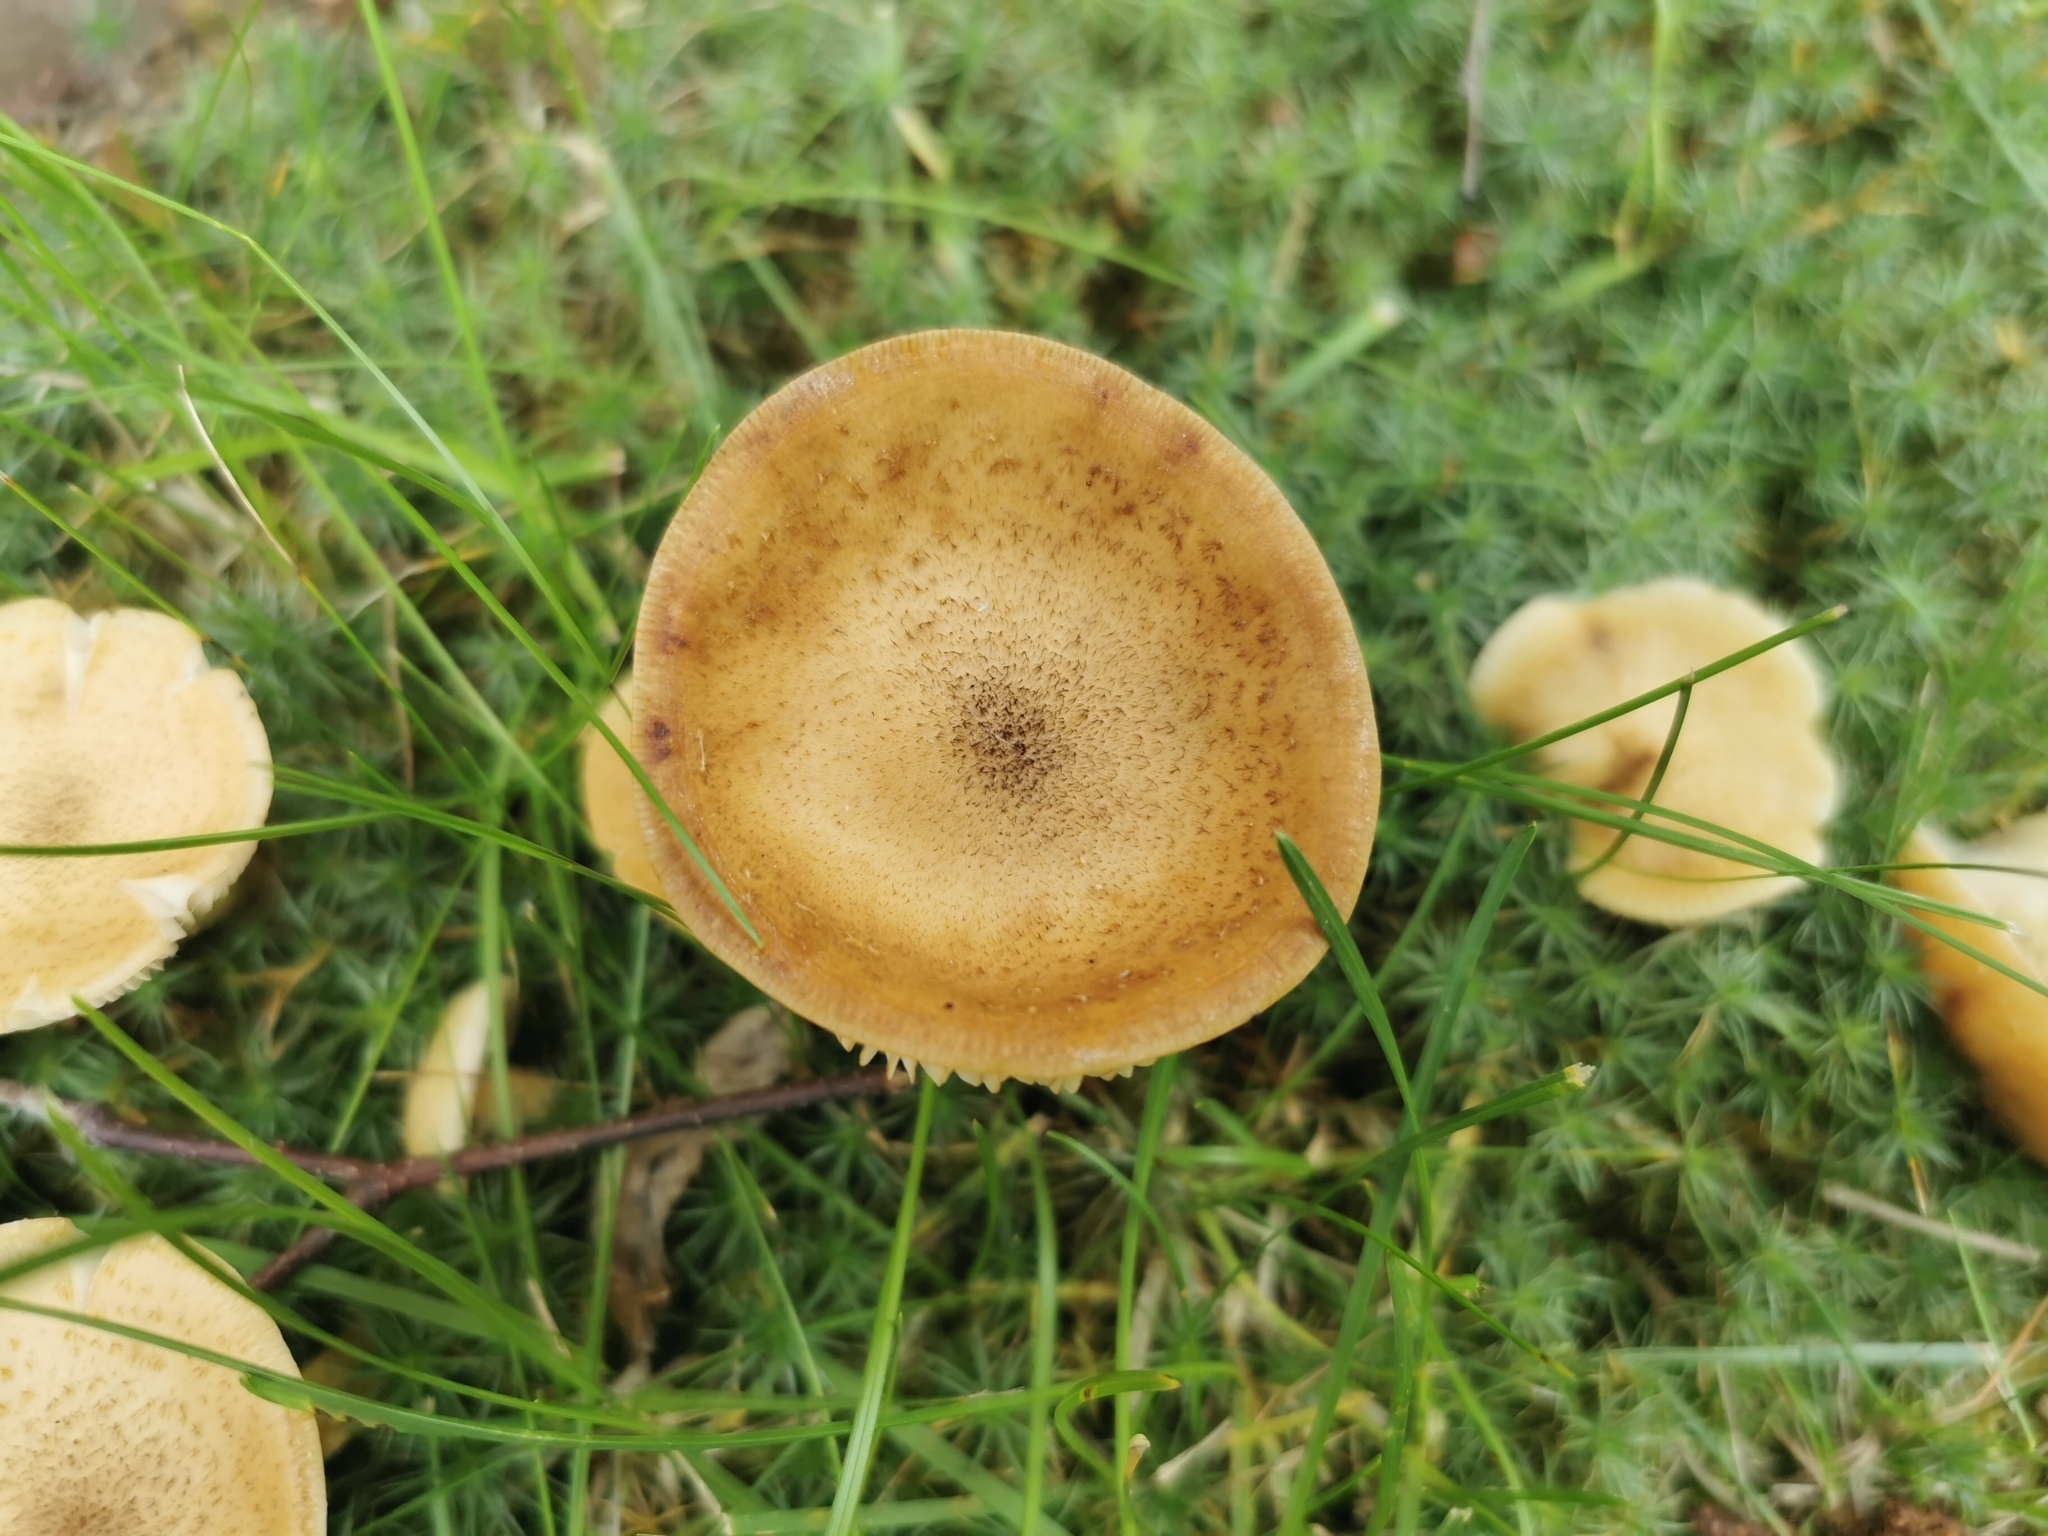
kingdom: Fungi
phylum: Basidiomycota
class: Agaricomycetes
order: Agaricales
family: Physalacriaceae
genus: Armillaria
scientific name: Armillaria mellea
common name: Honey fungus
